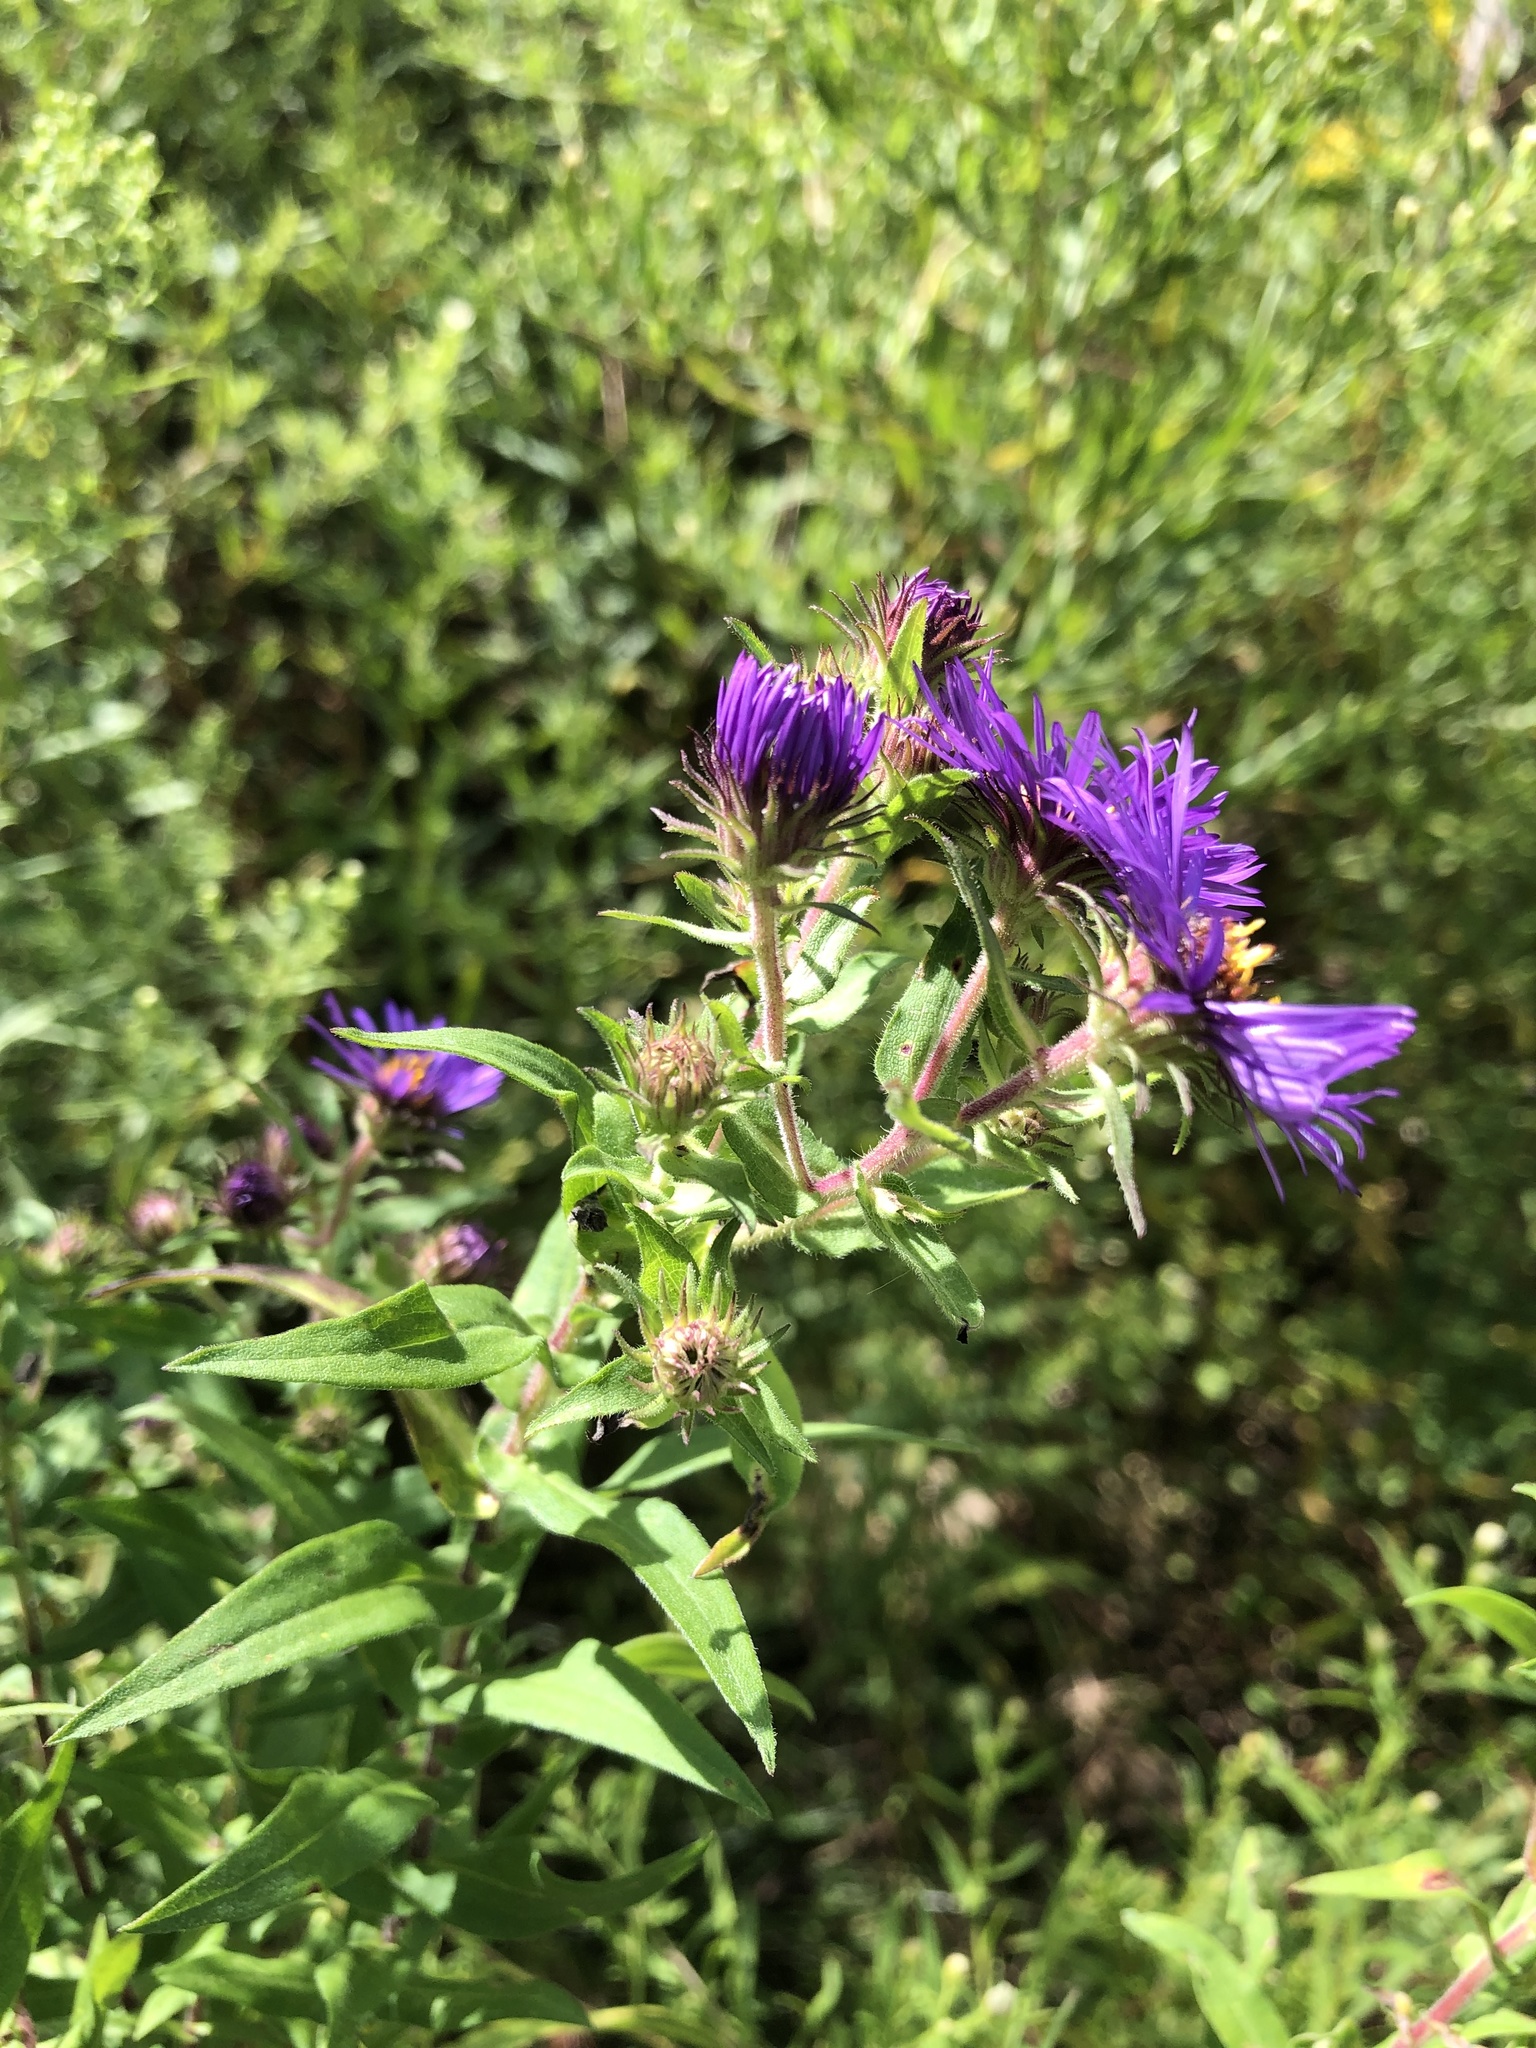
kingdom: Plantae
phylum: Tracheophyta
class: Magnoliopsida
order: Asterales
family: Asteraceae
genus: Symphyotrichum
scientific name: Symphyotrichum novae-angliae
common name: Michaelmas daisy
